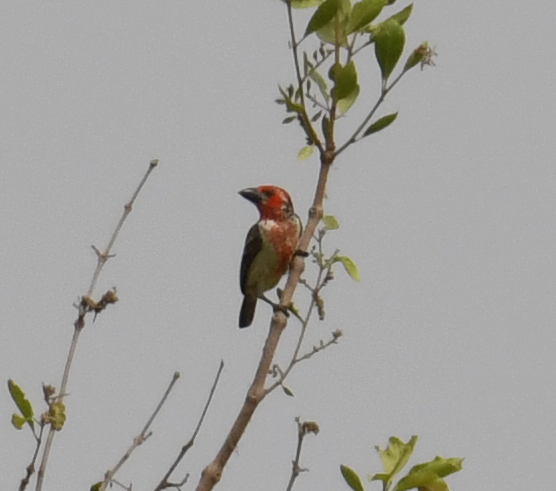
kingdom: Animalia
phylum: Chordata
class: Aves
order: Piciformes
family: Lybiidae
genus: Lybius
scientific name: Lybius vieilloti
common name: Vieillot's barbet
